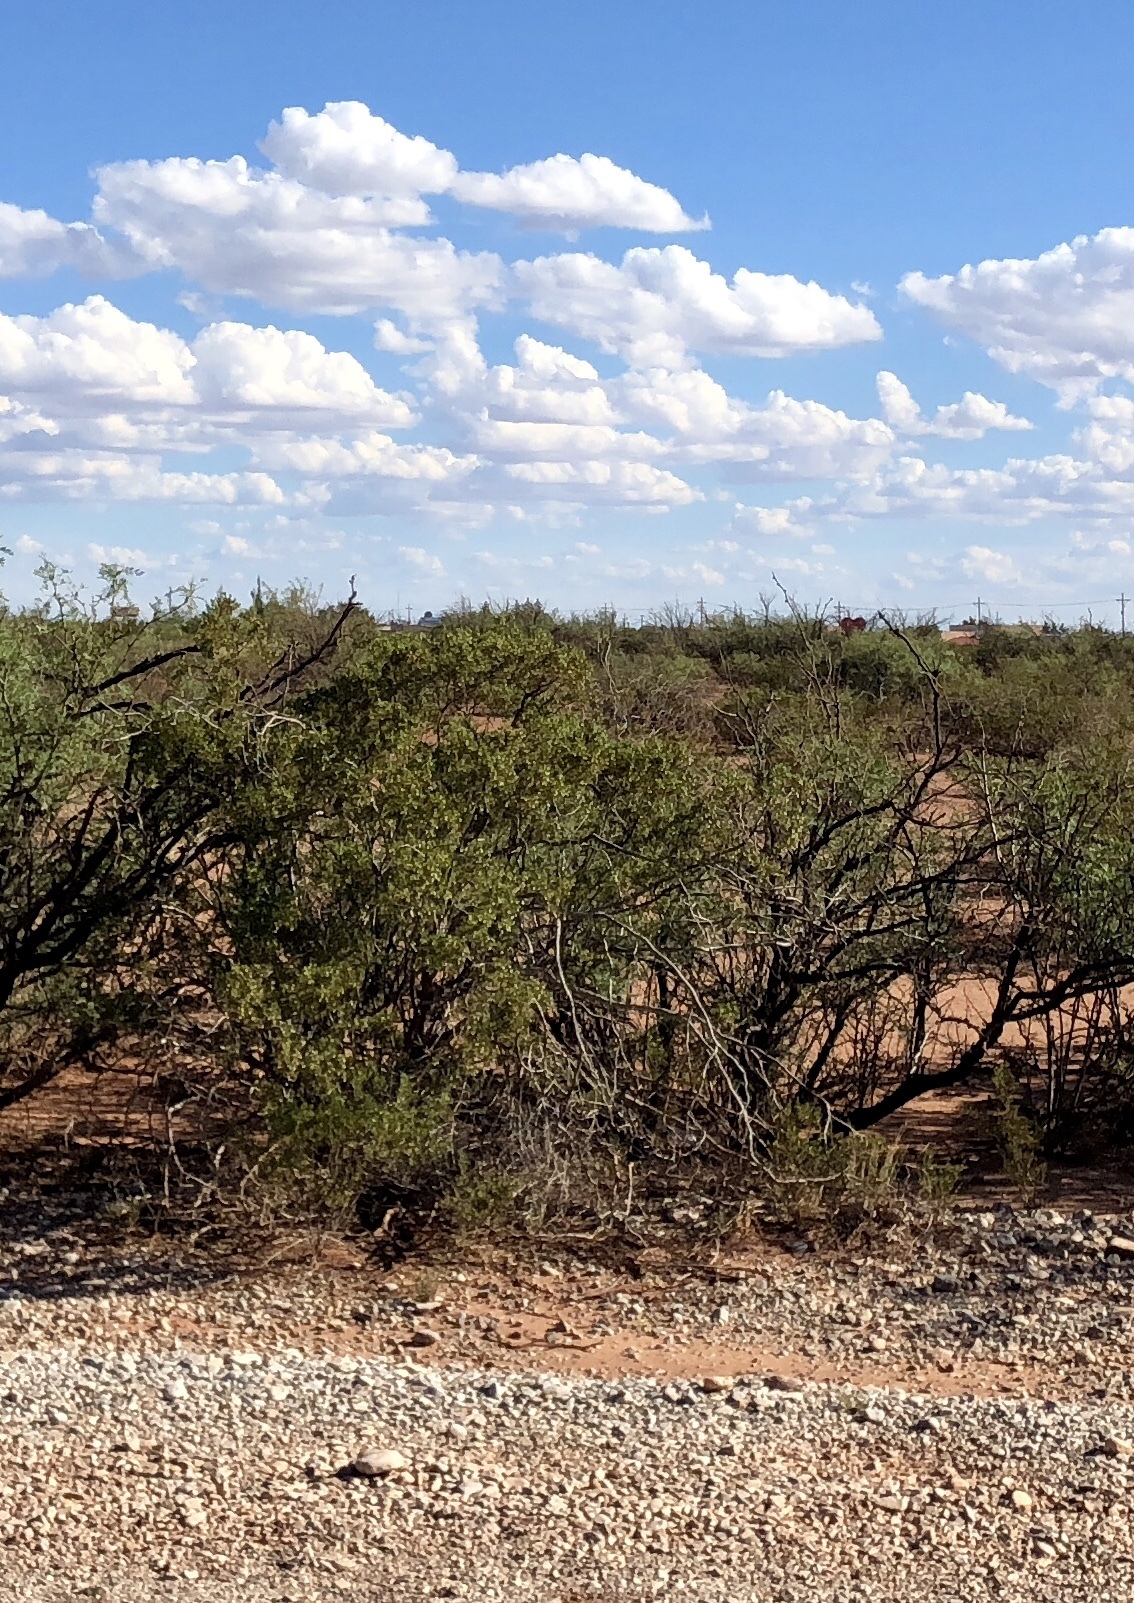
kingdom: Plantae
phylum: Tracheophyta
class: Magnoliopsida
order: Zygophyllales
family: Zygophyllaceae
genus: Larrea
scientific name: Larrea tridentata
